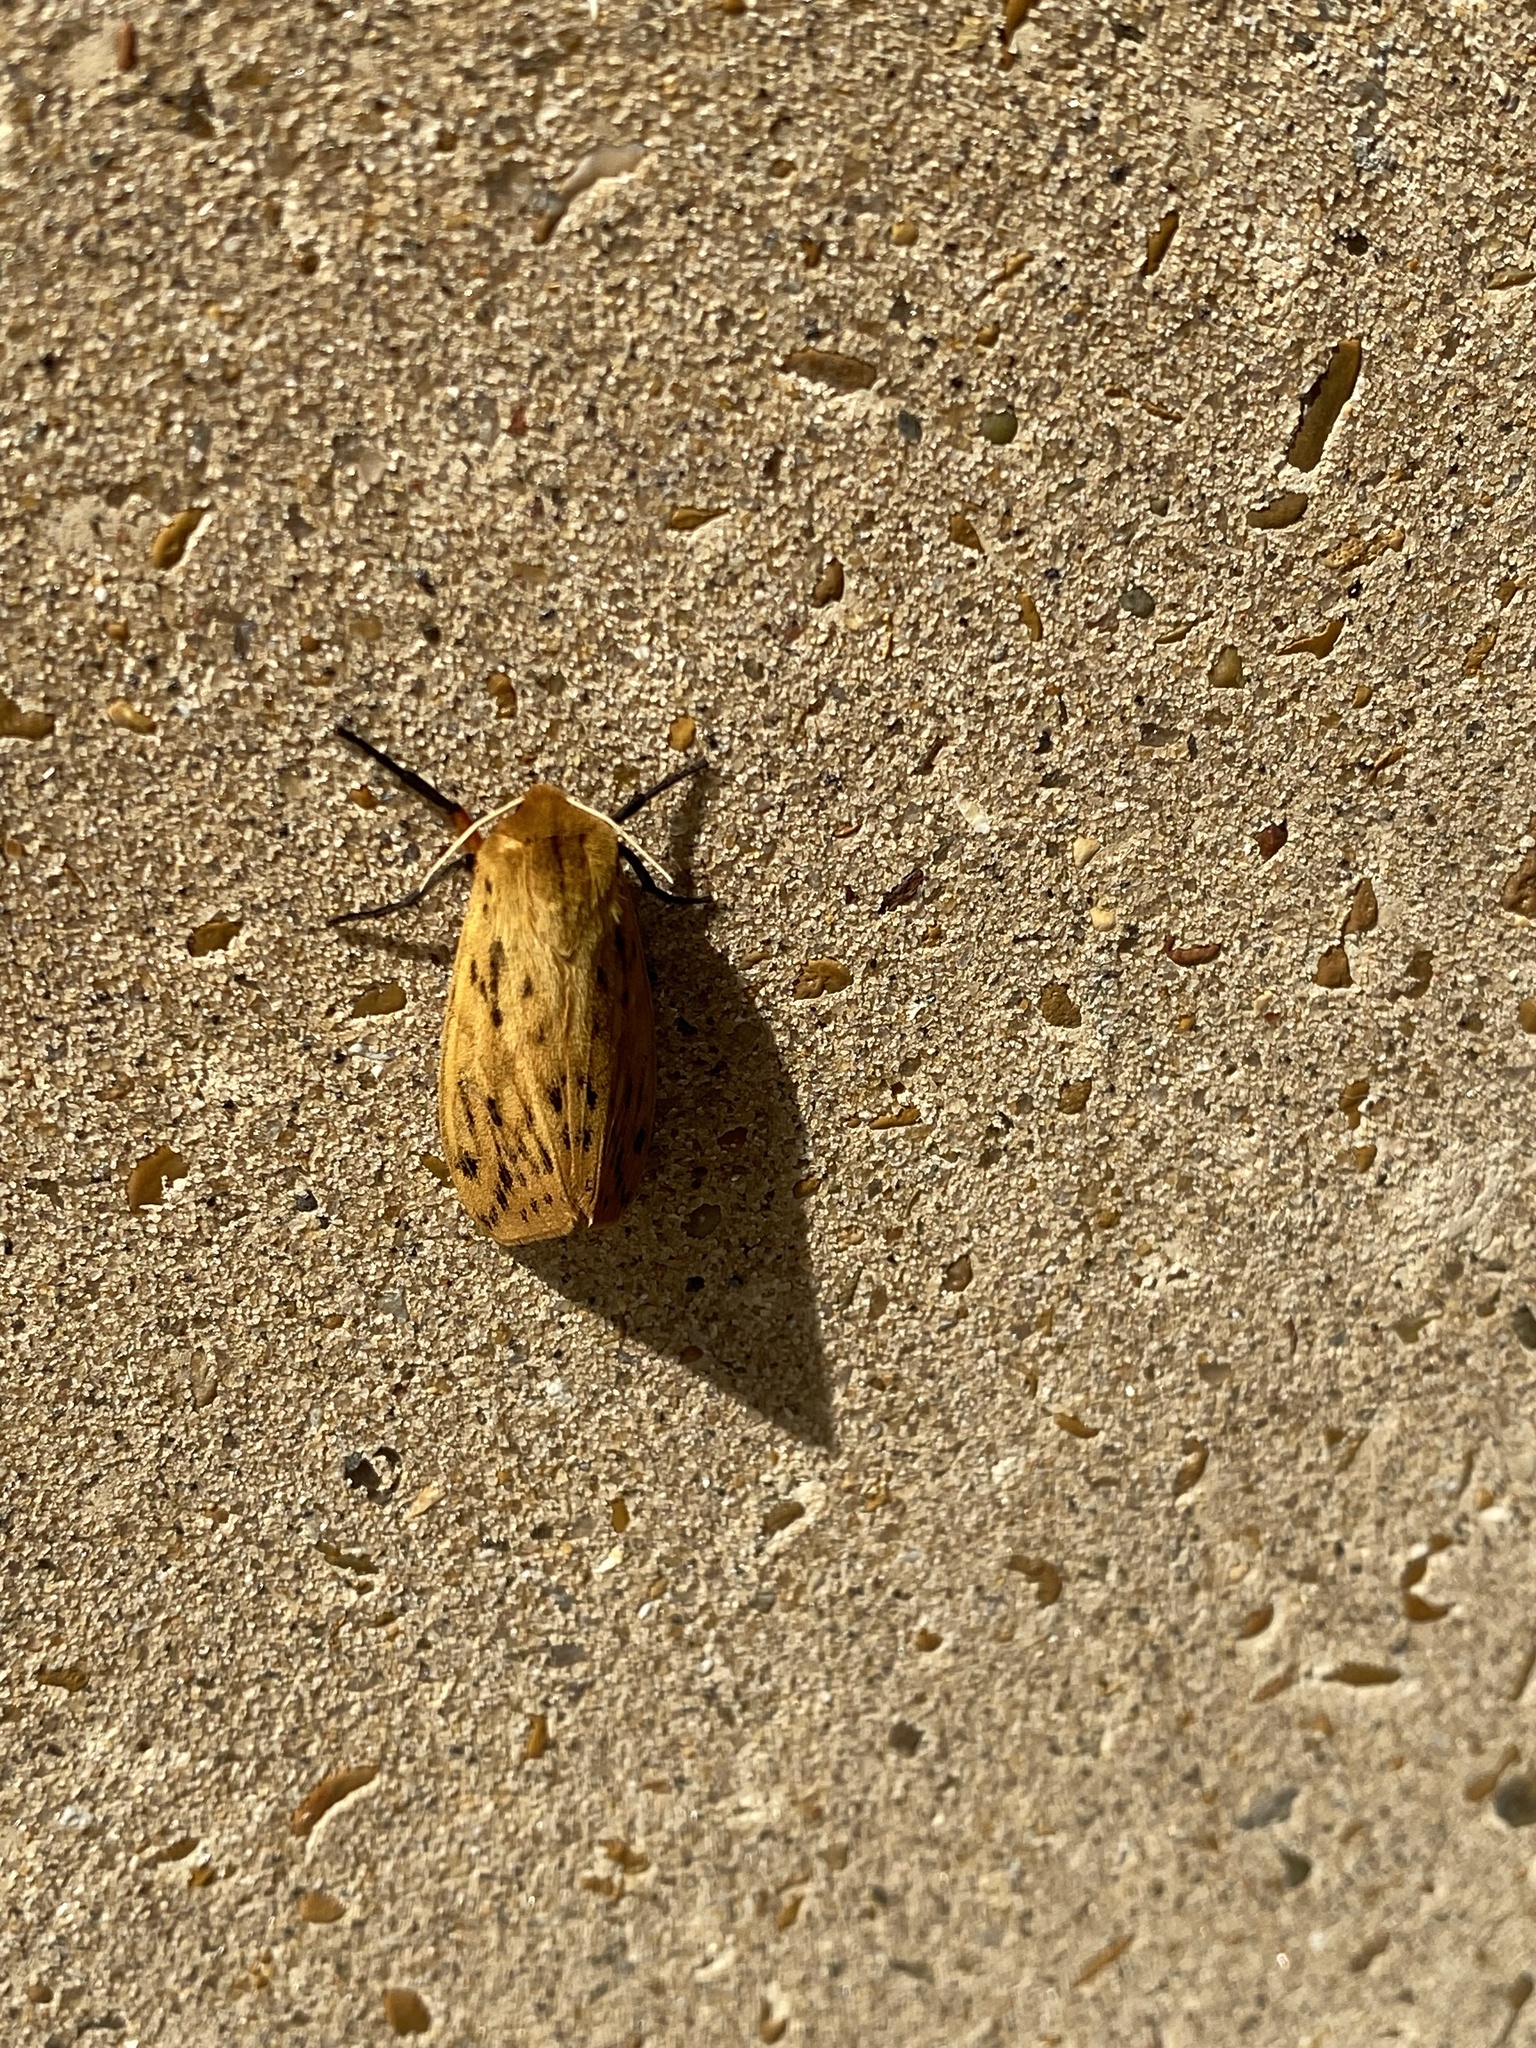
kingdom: Animalia
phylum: Arthropoda
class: Insecta
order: Lepidoptera
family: Erebidae
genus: Pyrrharctia
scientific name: Pyrrharctia isabella
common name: Isabella tiger moth
